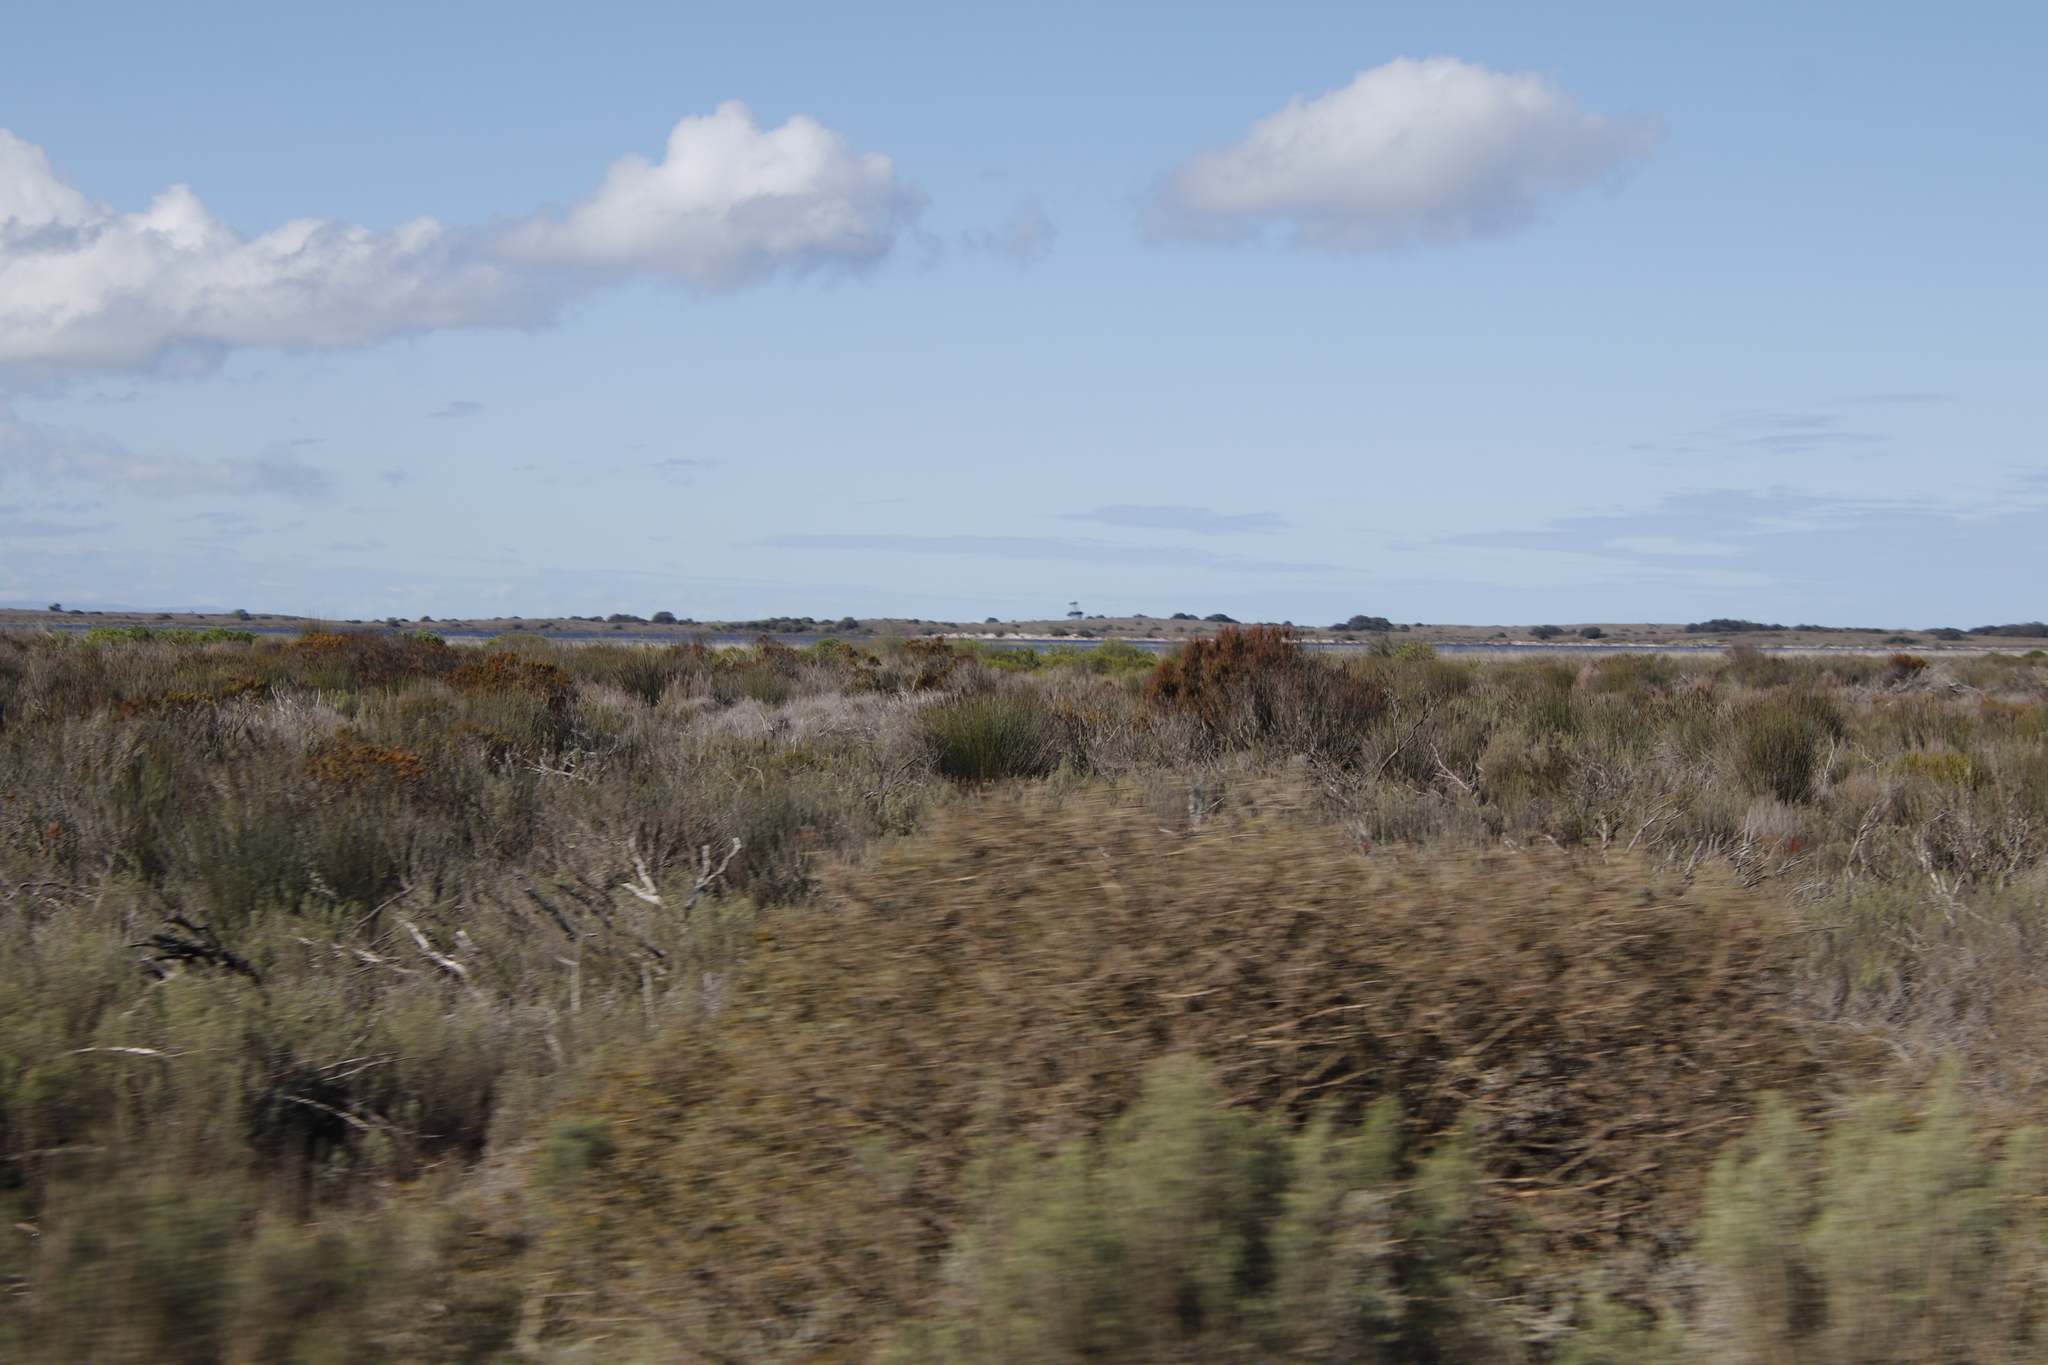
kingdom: Plantae
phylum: Tracheophyta
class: Magnoliopsida
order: Proteales
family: Proteaceae
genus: Leucadendron
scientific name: Leucadendron linifolium
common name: Line-leaf conebush
